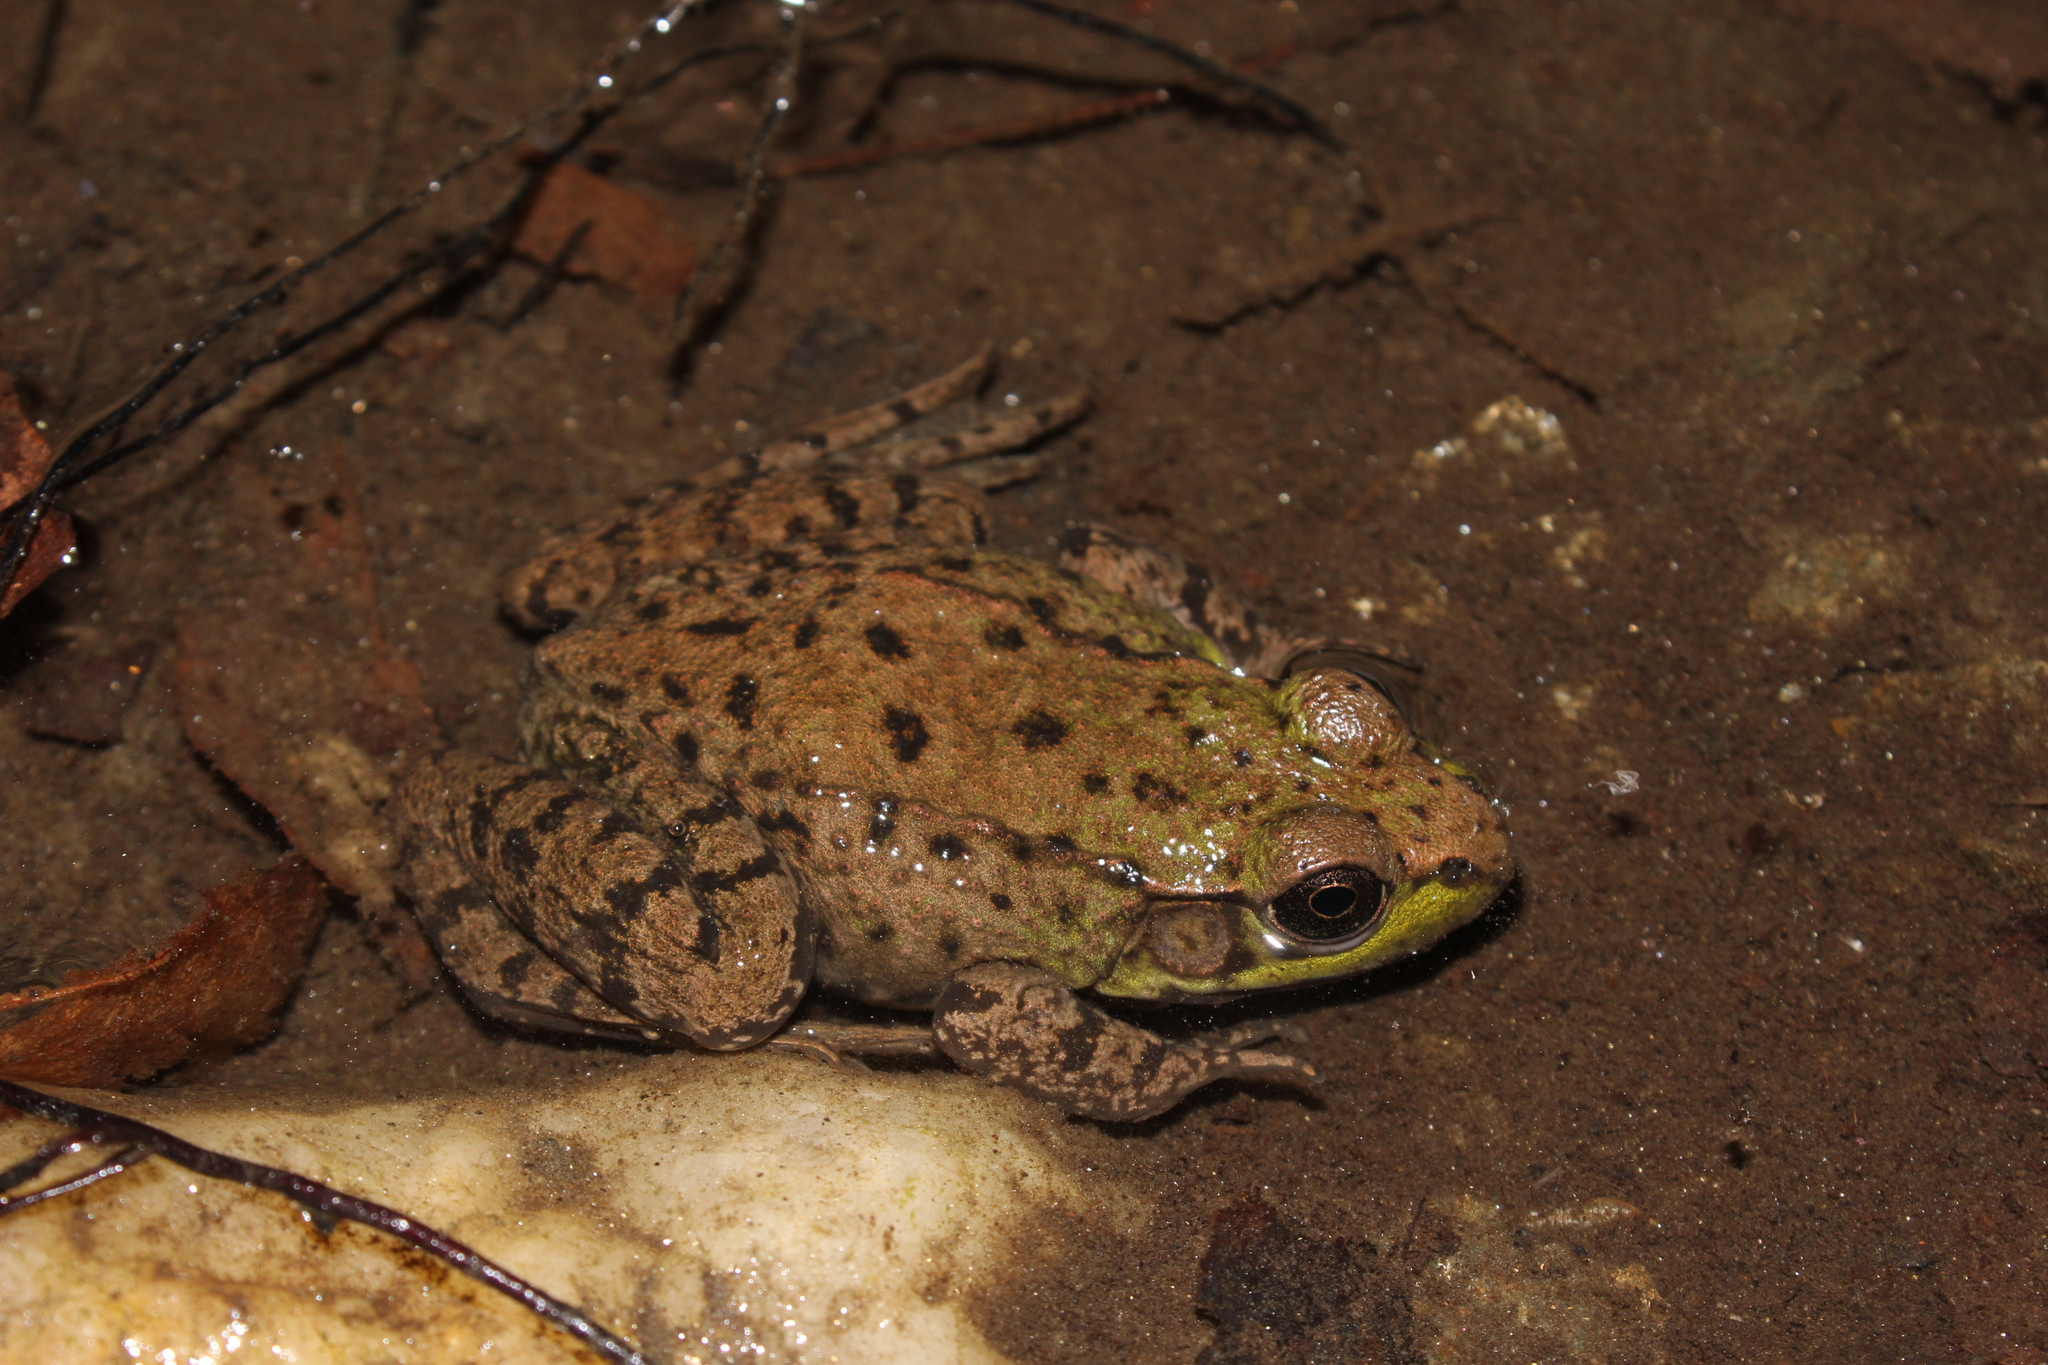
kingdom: Animalia
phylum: Chordata
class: Amphibia
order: Anura
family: Ranidae
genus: Lithobates
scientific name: Lithobates clamitans
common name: Green frog
